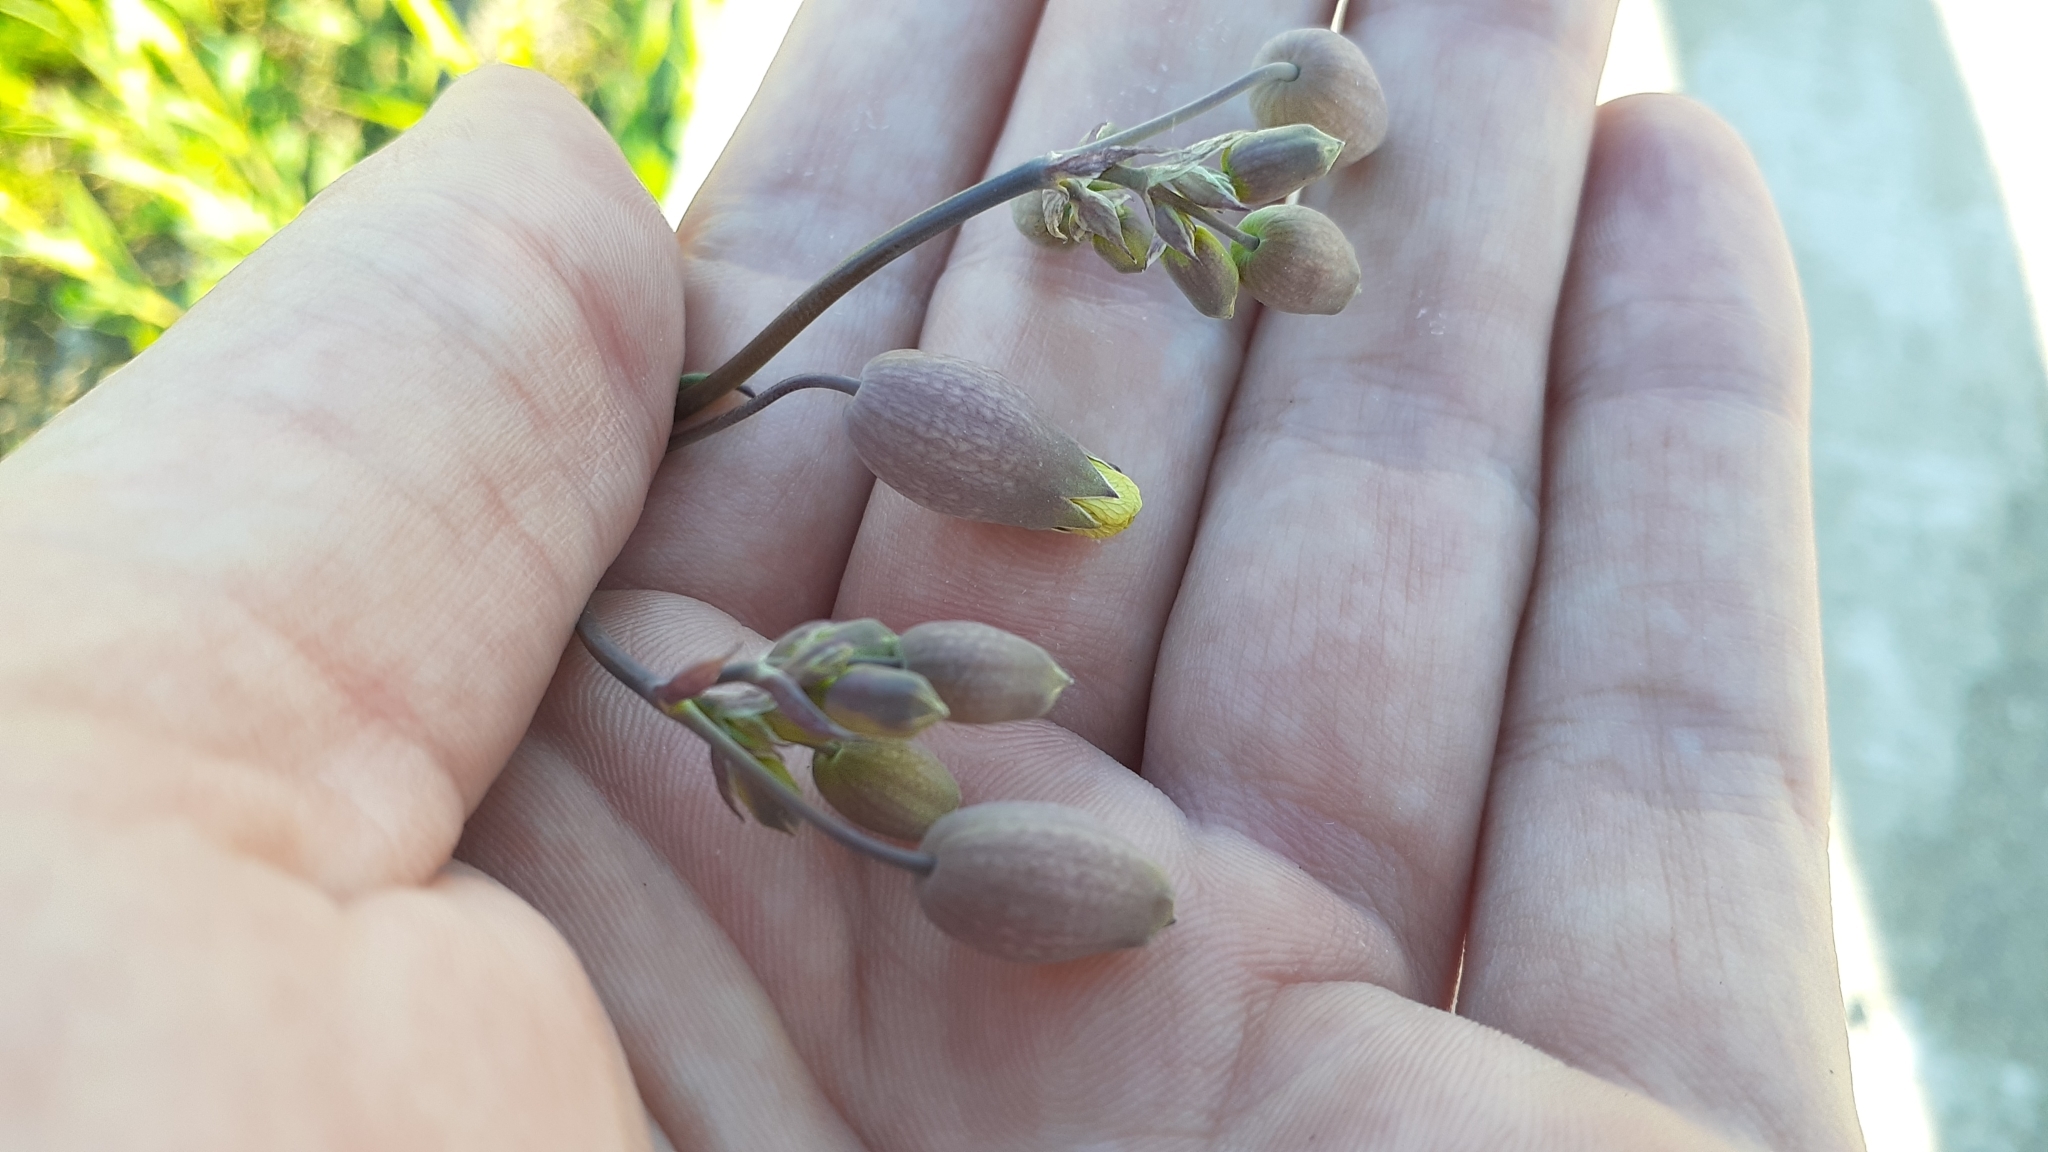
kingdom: Plantae
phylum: Tracheophyta
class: Magnoliopsida
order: Caryophyllales
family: Caryophyllaceae
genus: Silene
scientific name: Silene vulgaris
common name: Bladder campion
